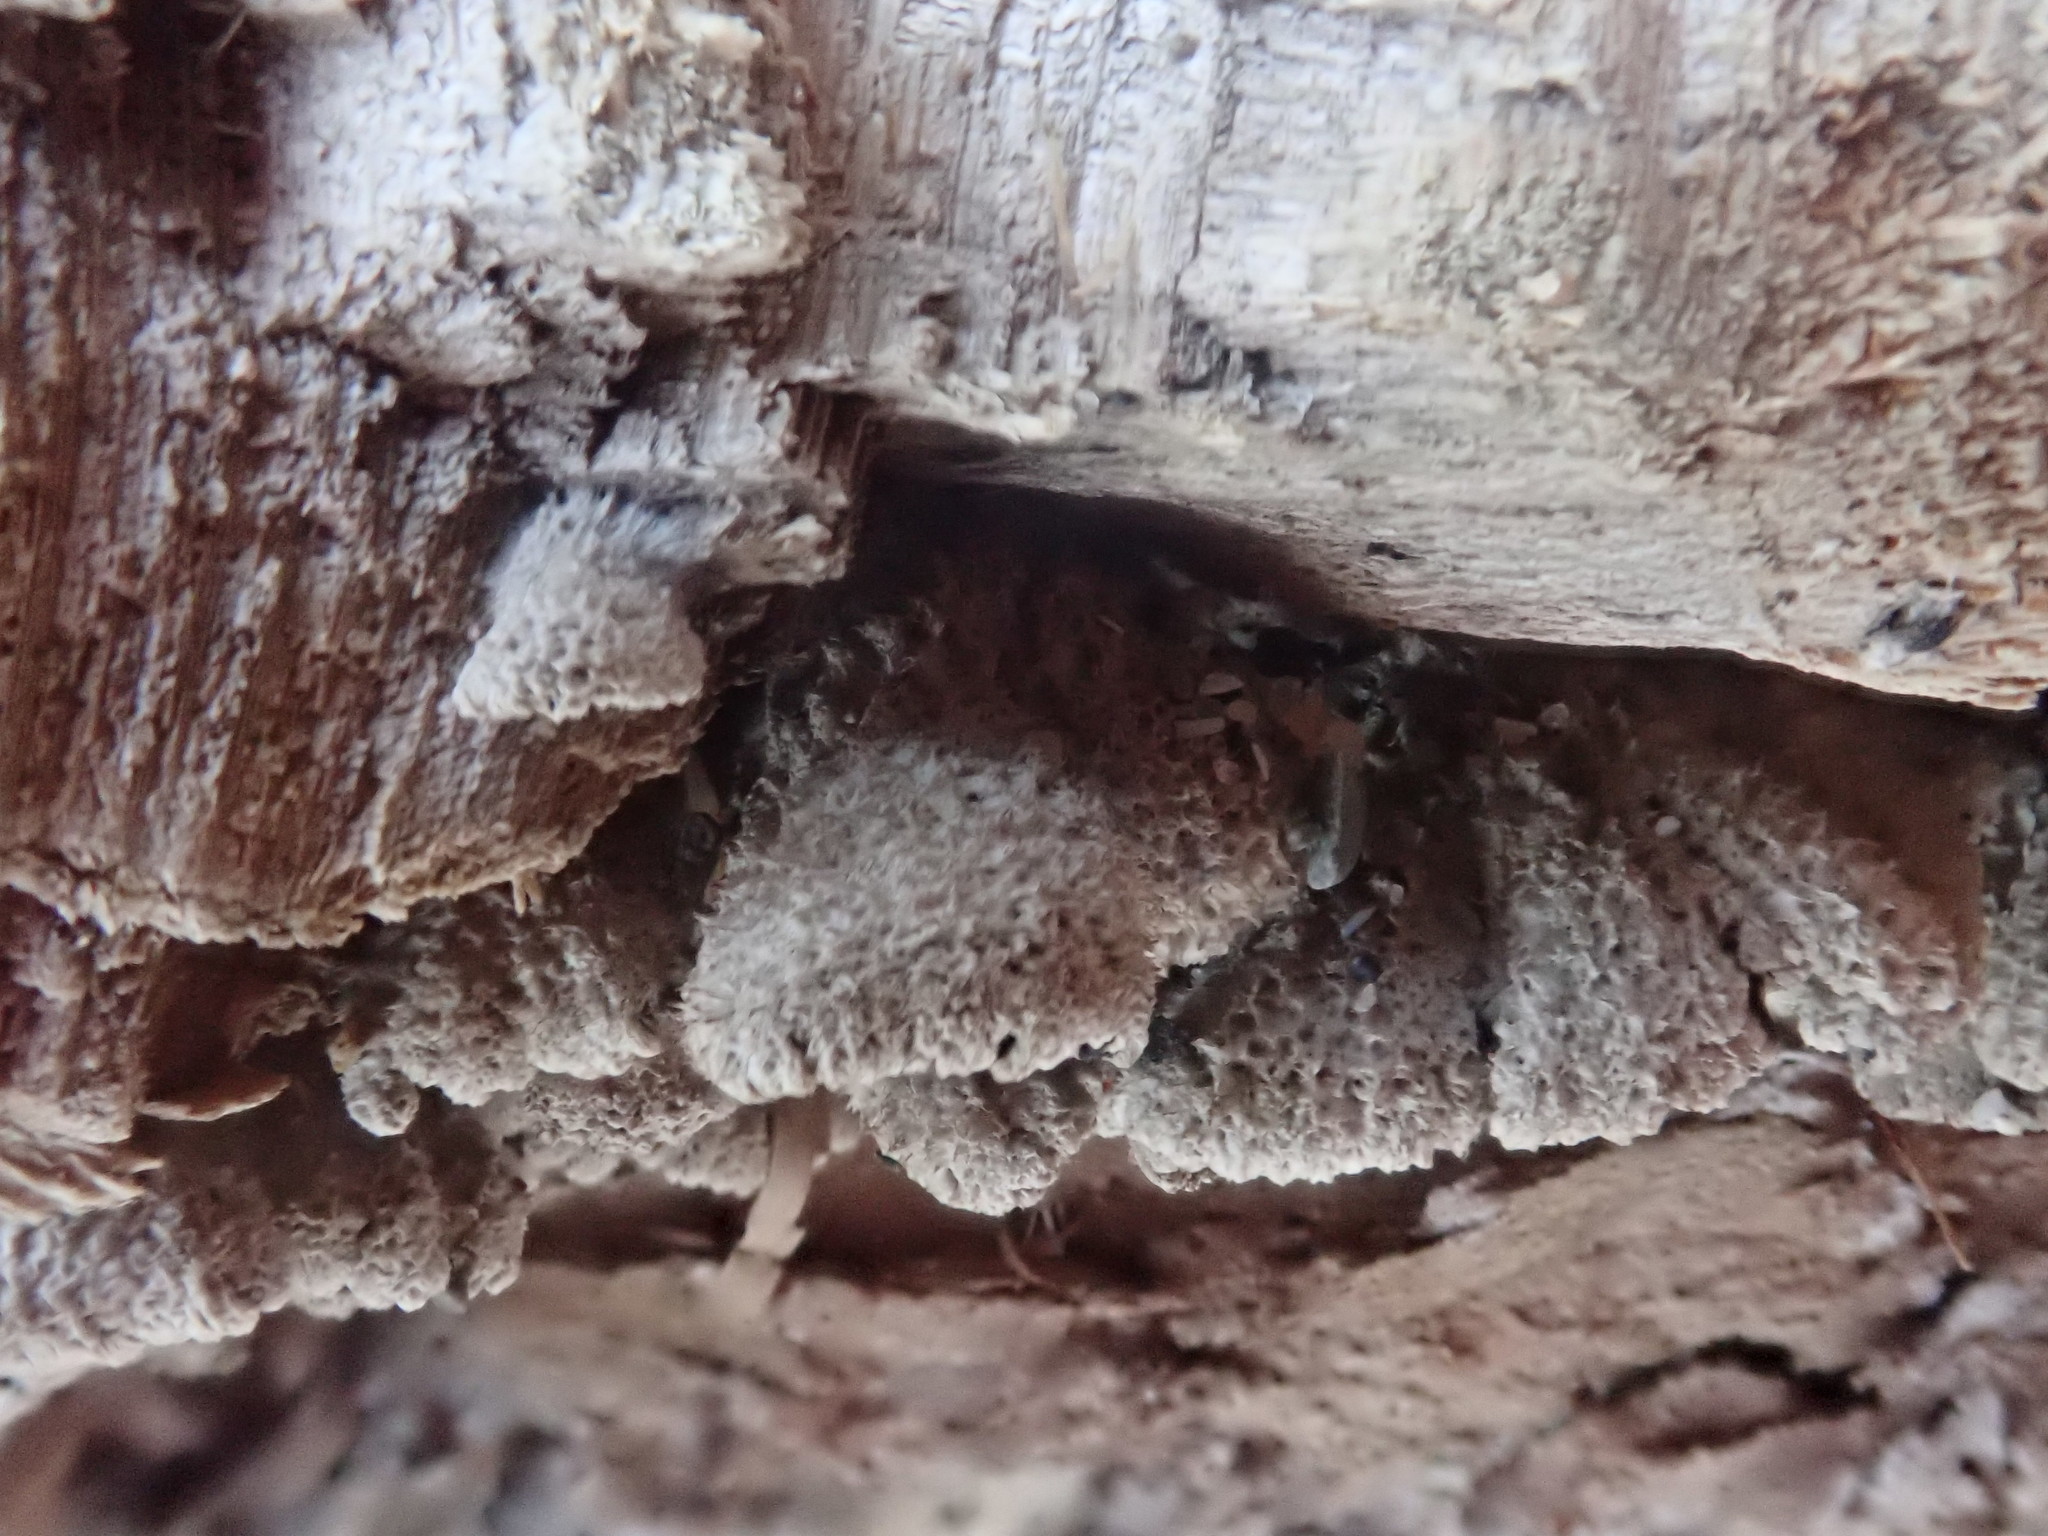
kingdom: Fungi
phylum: Basidiomycota
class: Agaricomycetes
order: Agaricales
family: Schizophyllaceae
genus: Schizophyllum
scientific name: Schizophyllum commune
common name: Common porecrust
